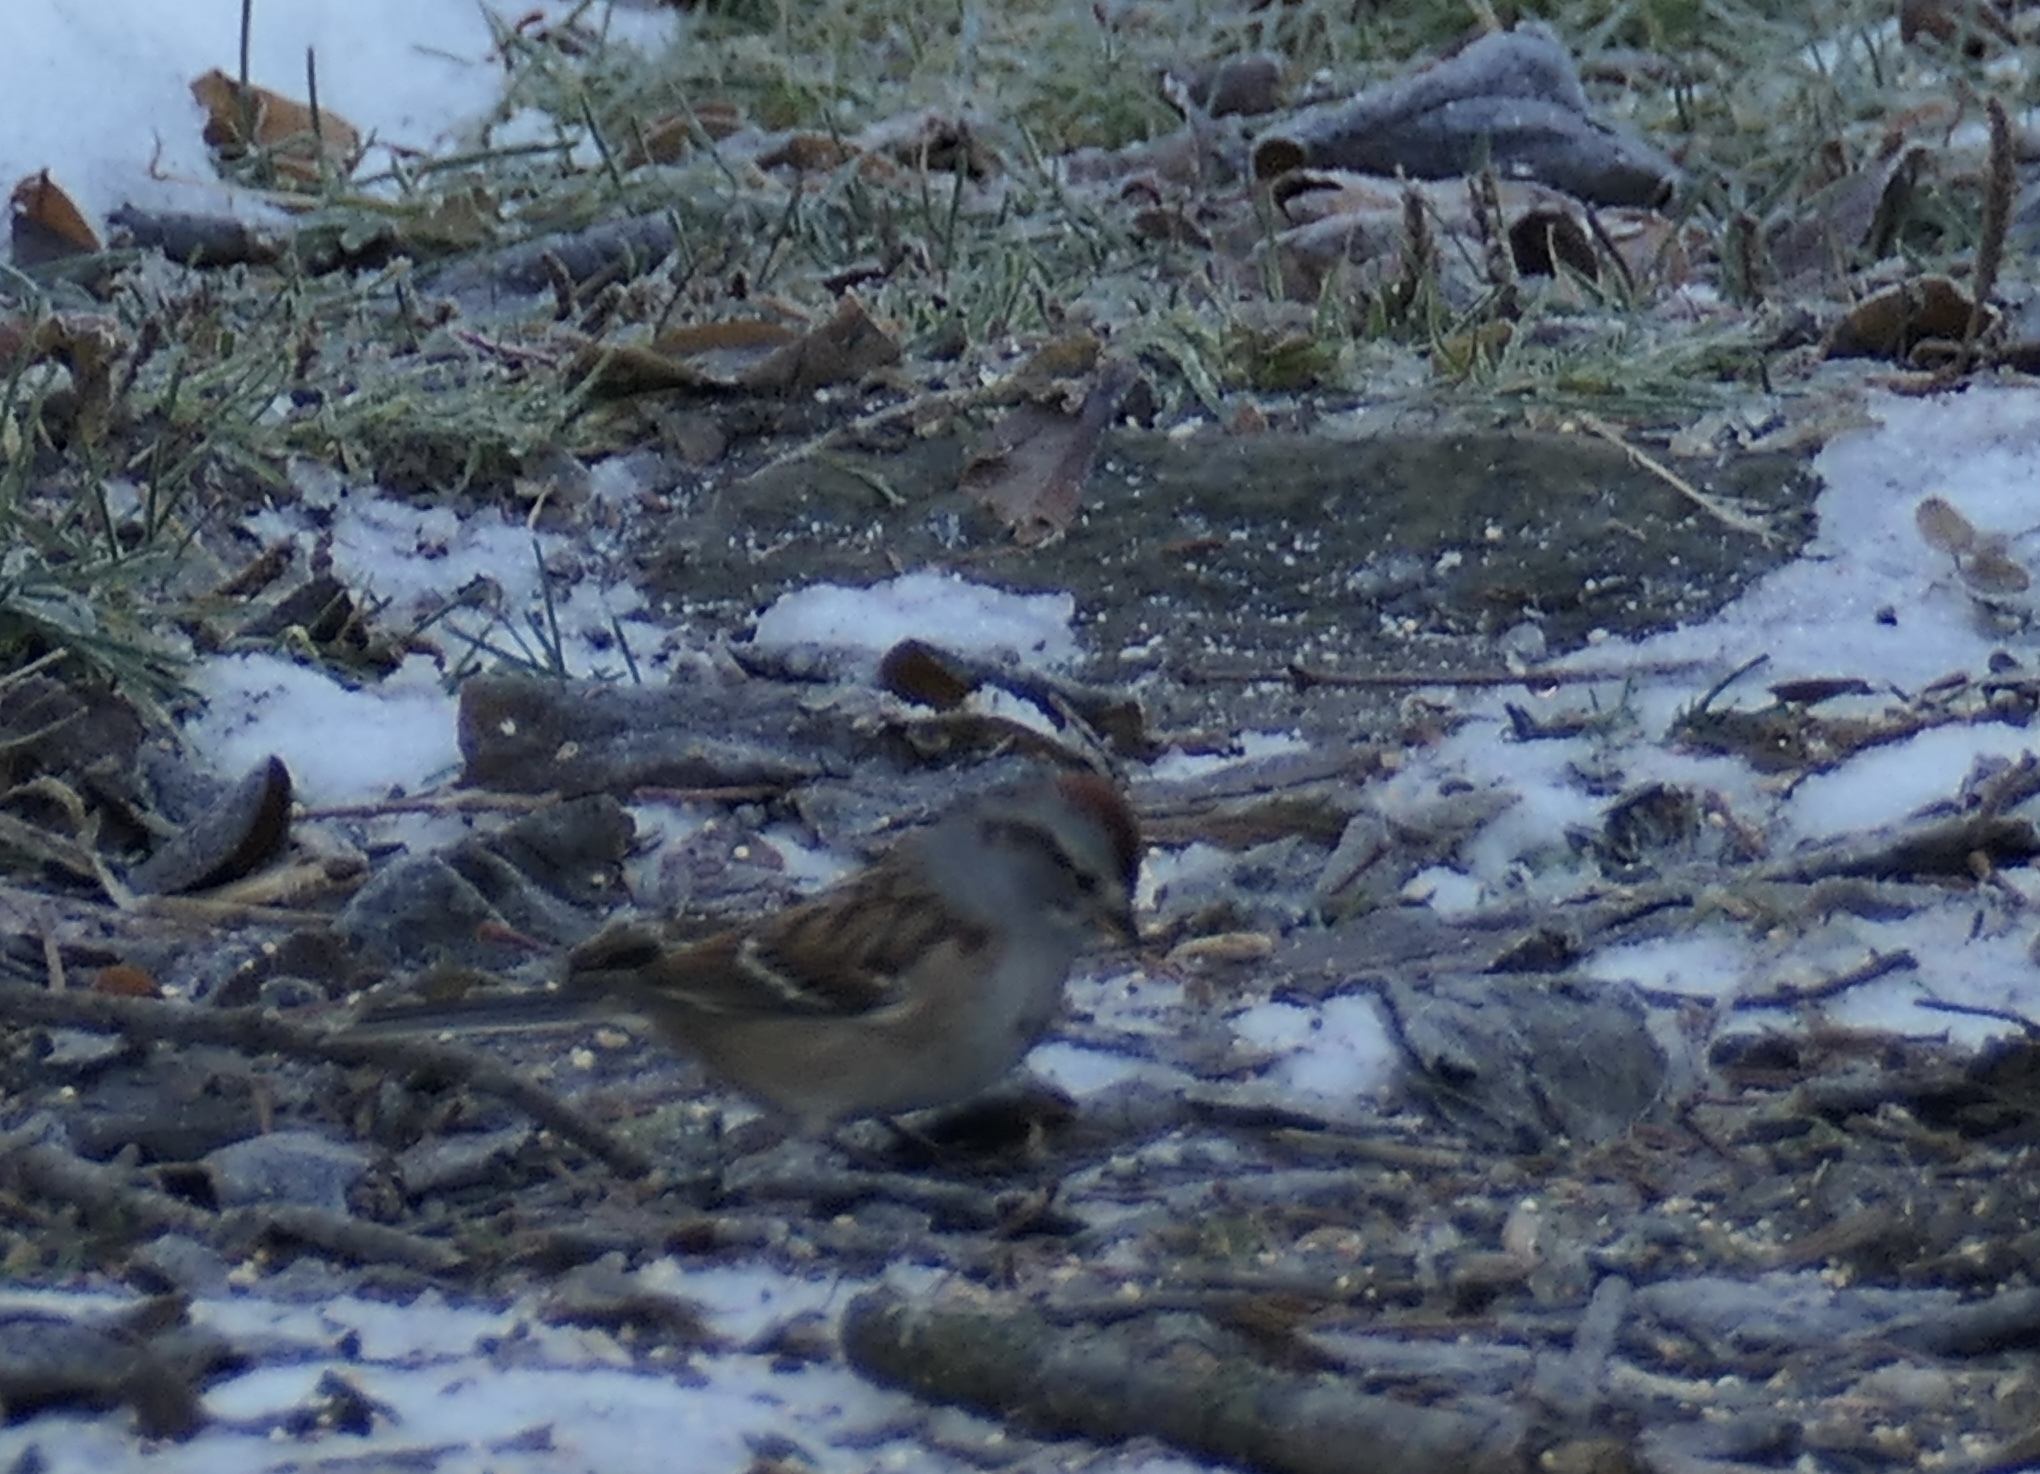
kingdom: Animalia
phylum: Chordata
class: Aves
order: Passeriformes
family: Passerellidae
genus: Spizelloides
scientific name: Spizelloides arborea
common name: American tree sparrow
